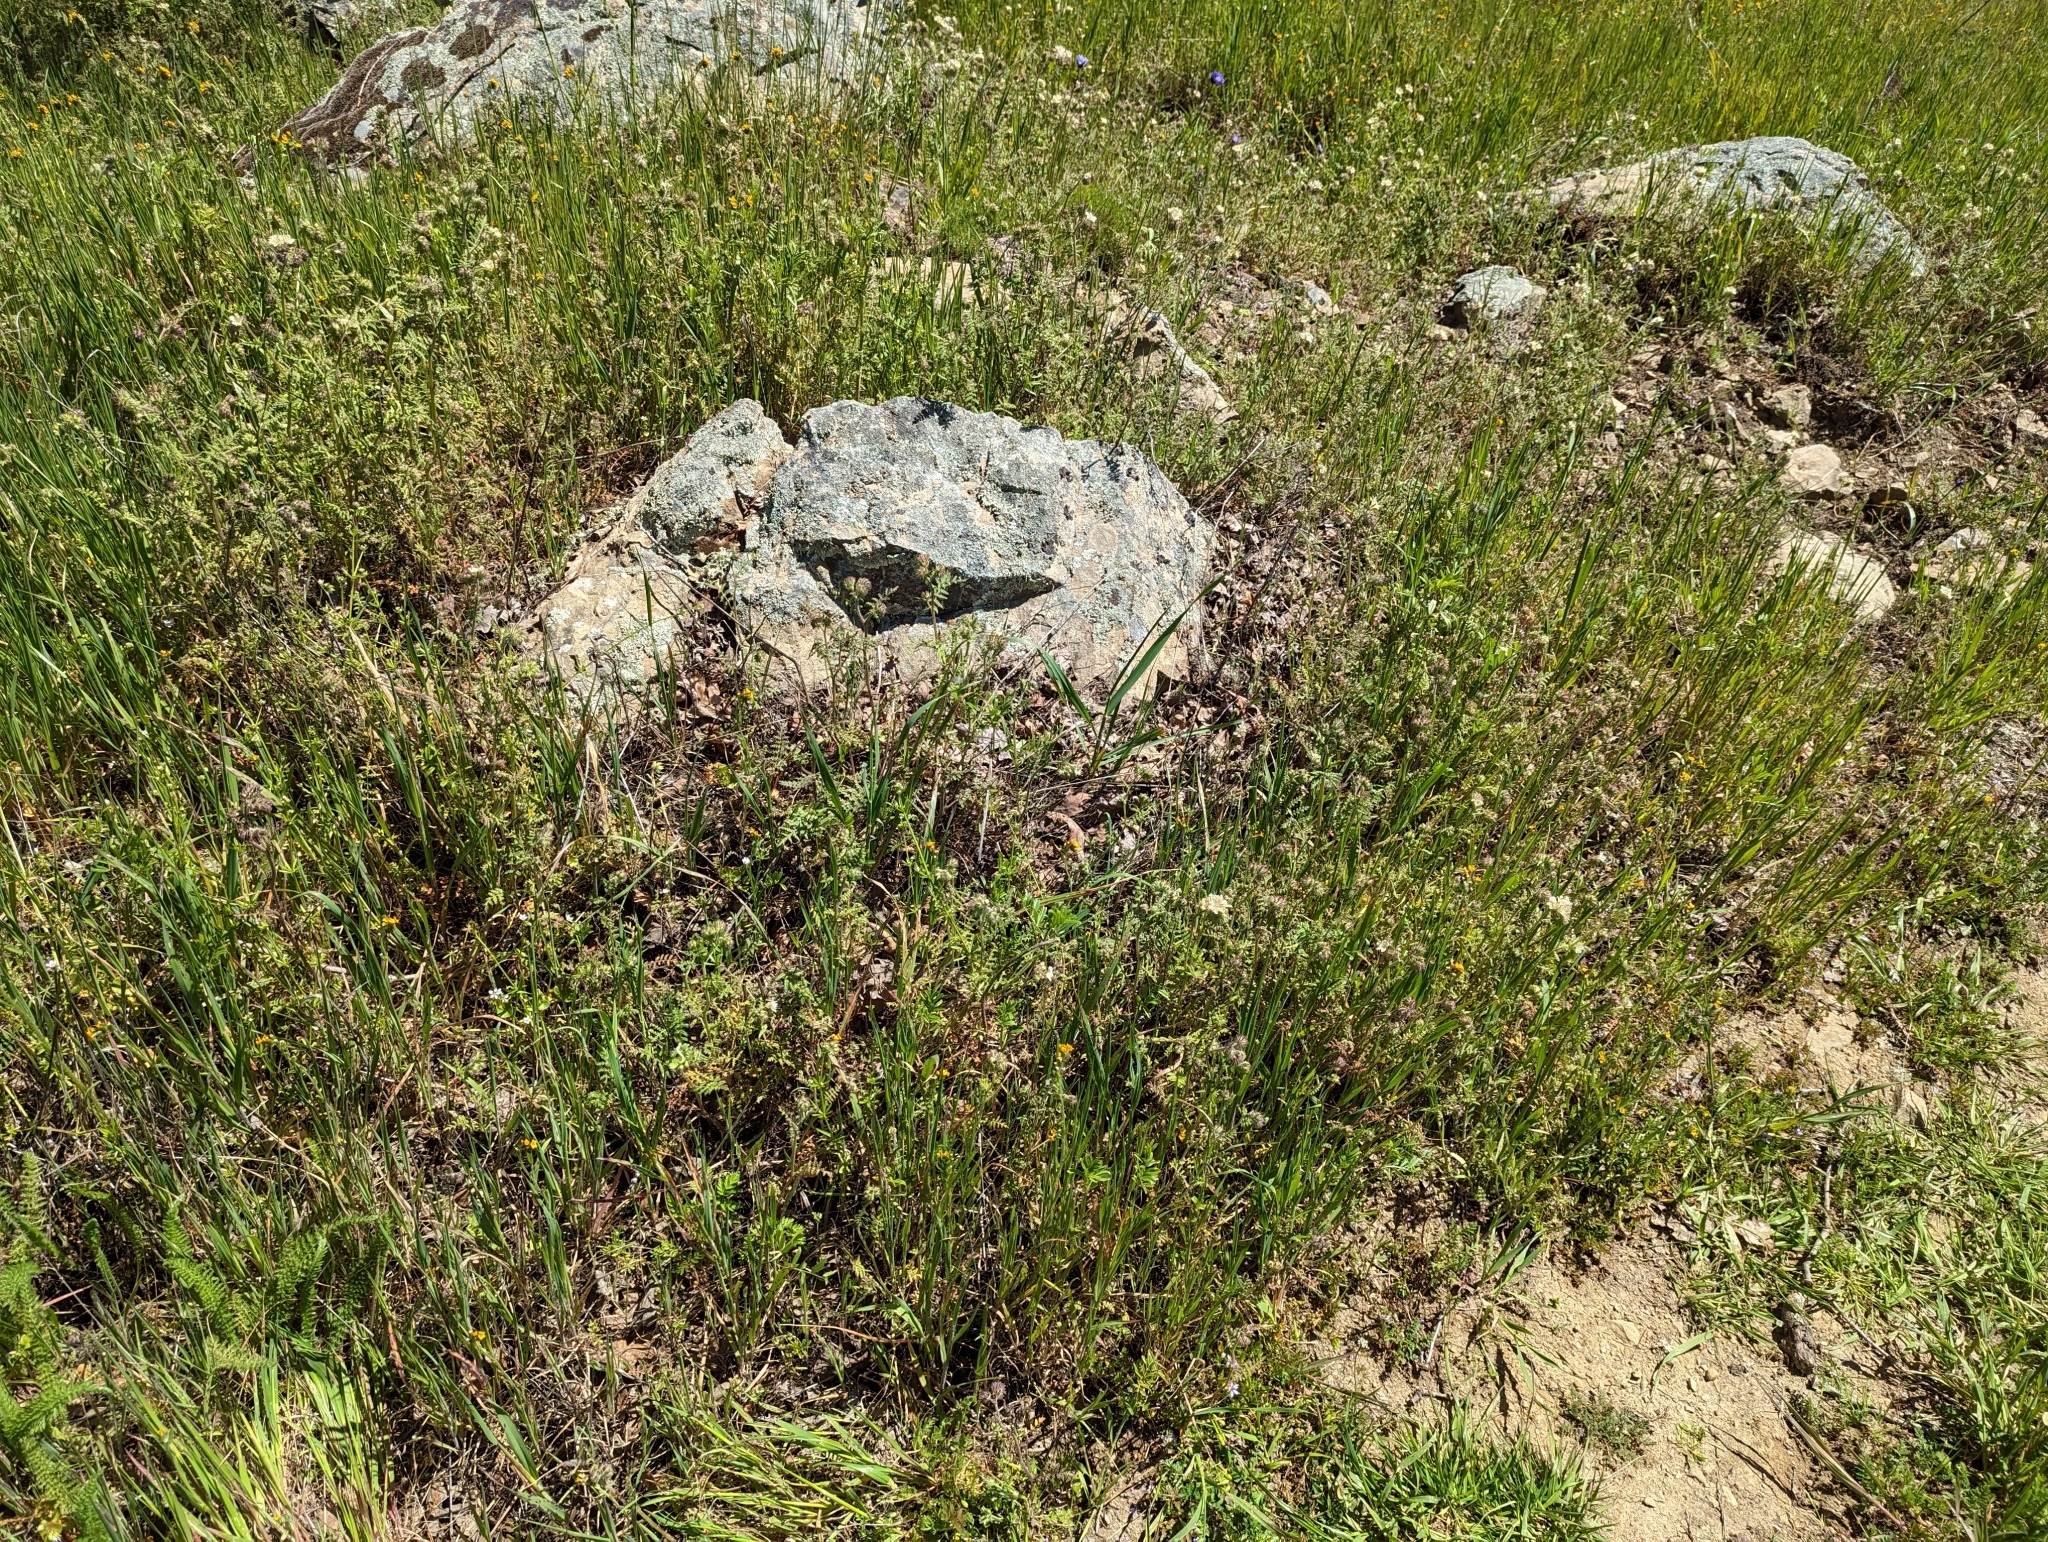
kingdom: Plantae
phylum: Tracheophyta
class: Magnoliopsida
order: Boraginales
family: Hydrophyllaceae
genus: Phacelia
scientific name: Phacelia distans
